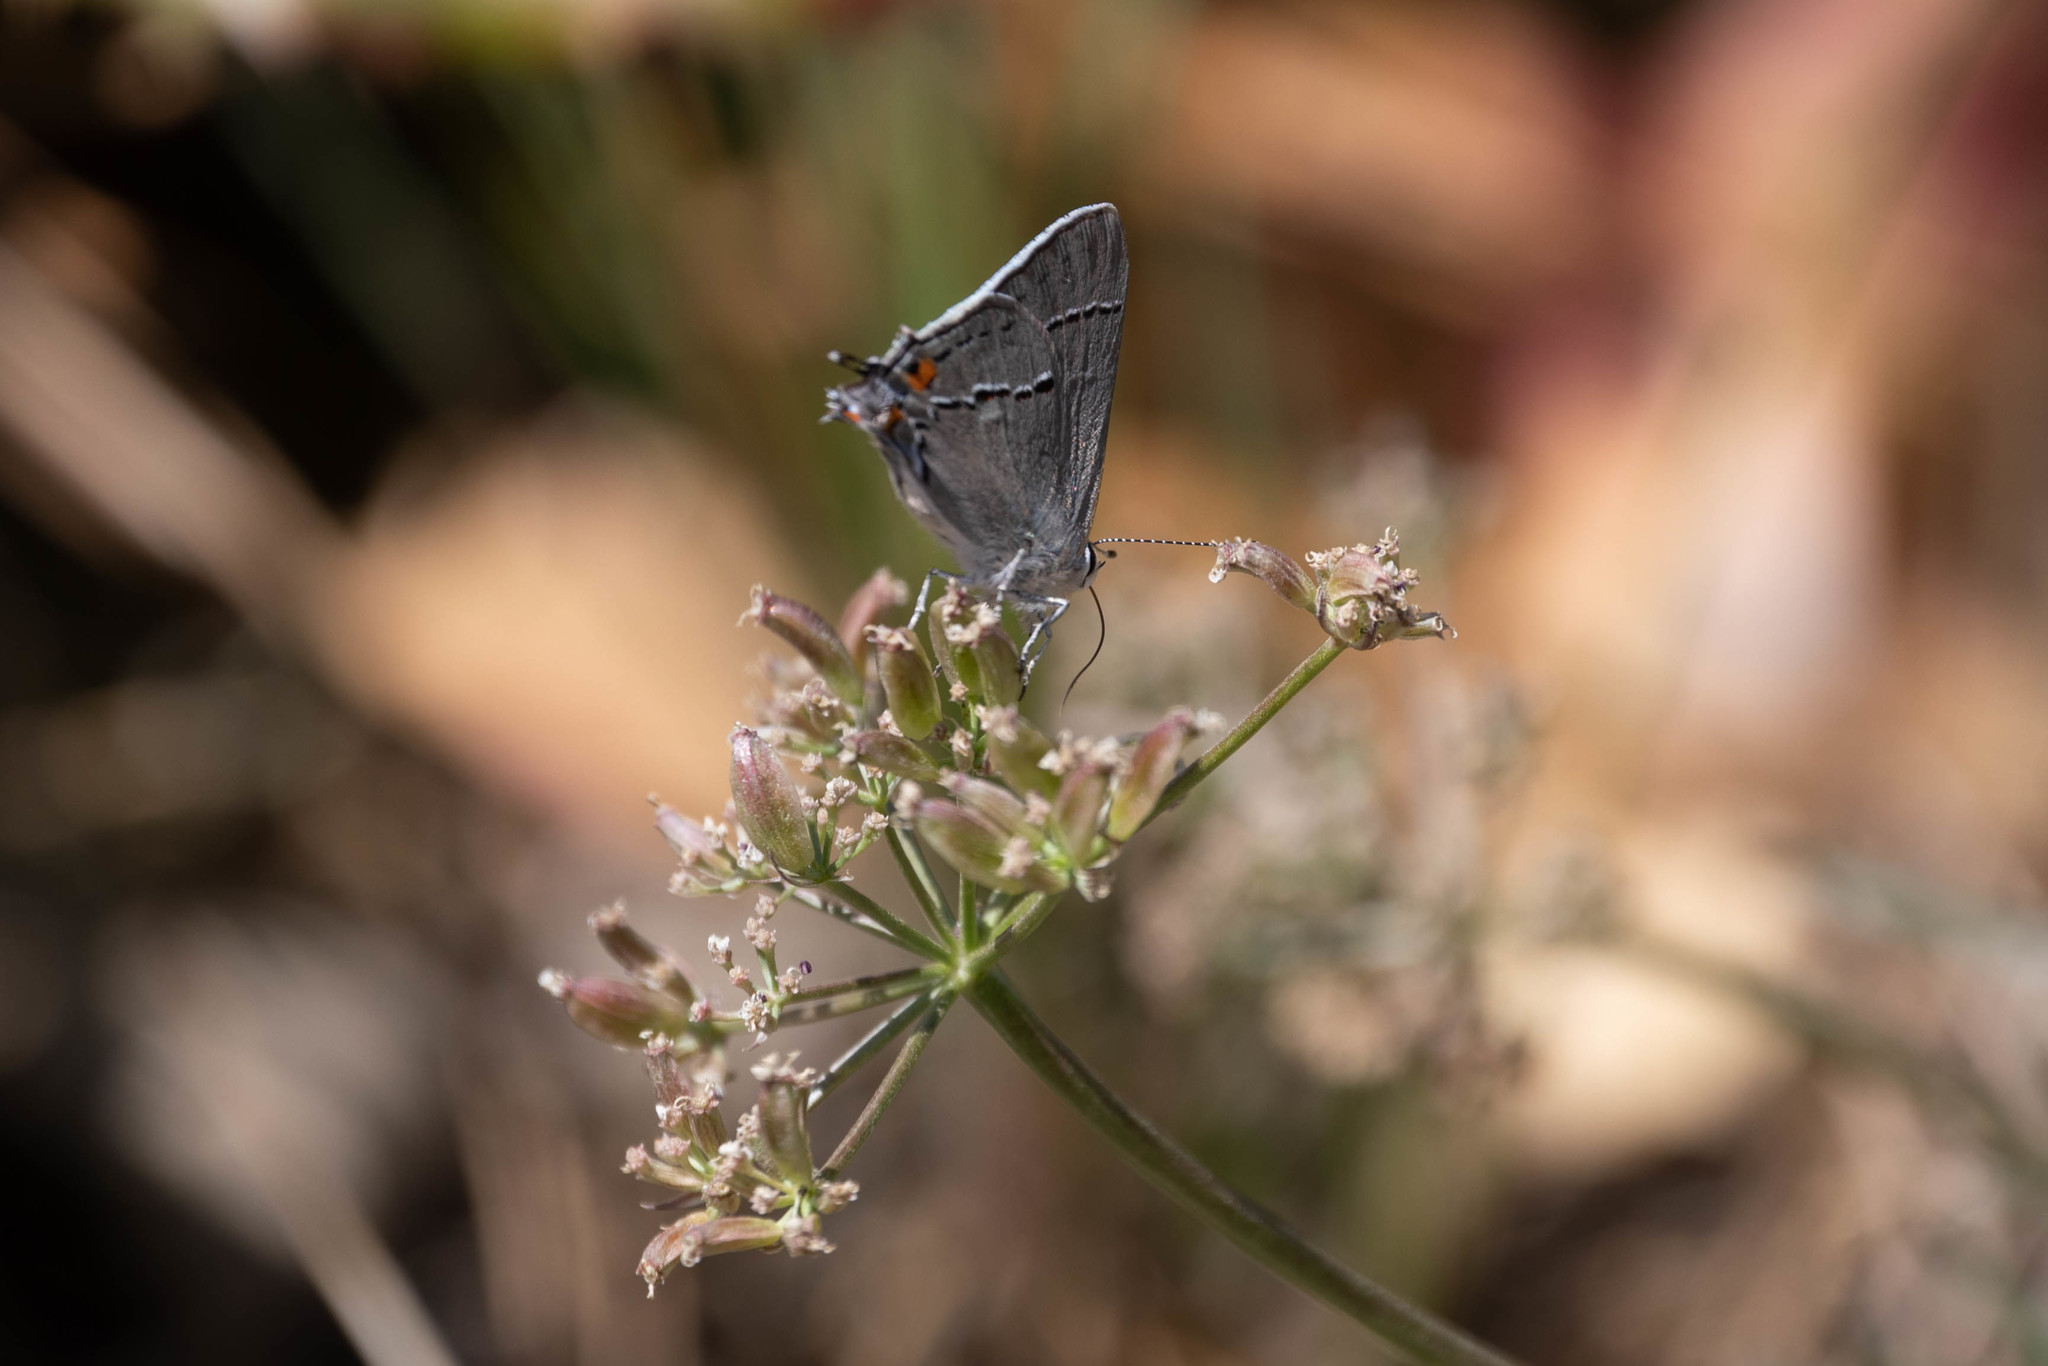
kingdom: Animalia
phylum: Arthropoda
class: Insecta
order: Lepidoptera
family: Lycaenidae
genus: Strymon
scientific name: Strymon melinus
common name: Gray hairstreak
